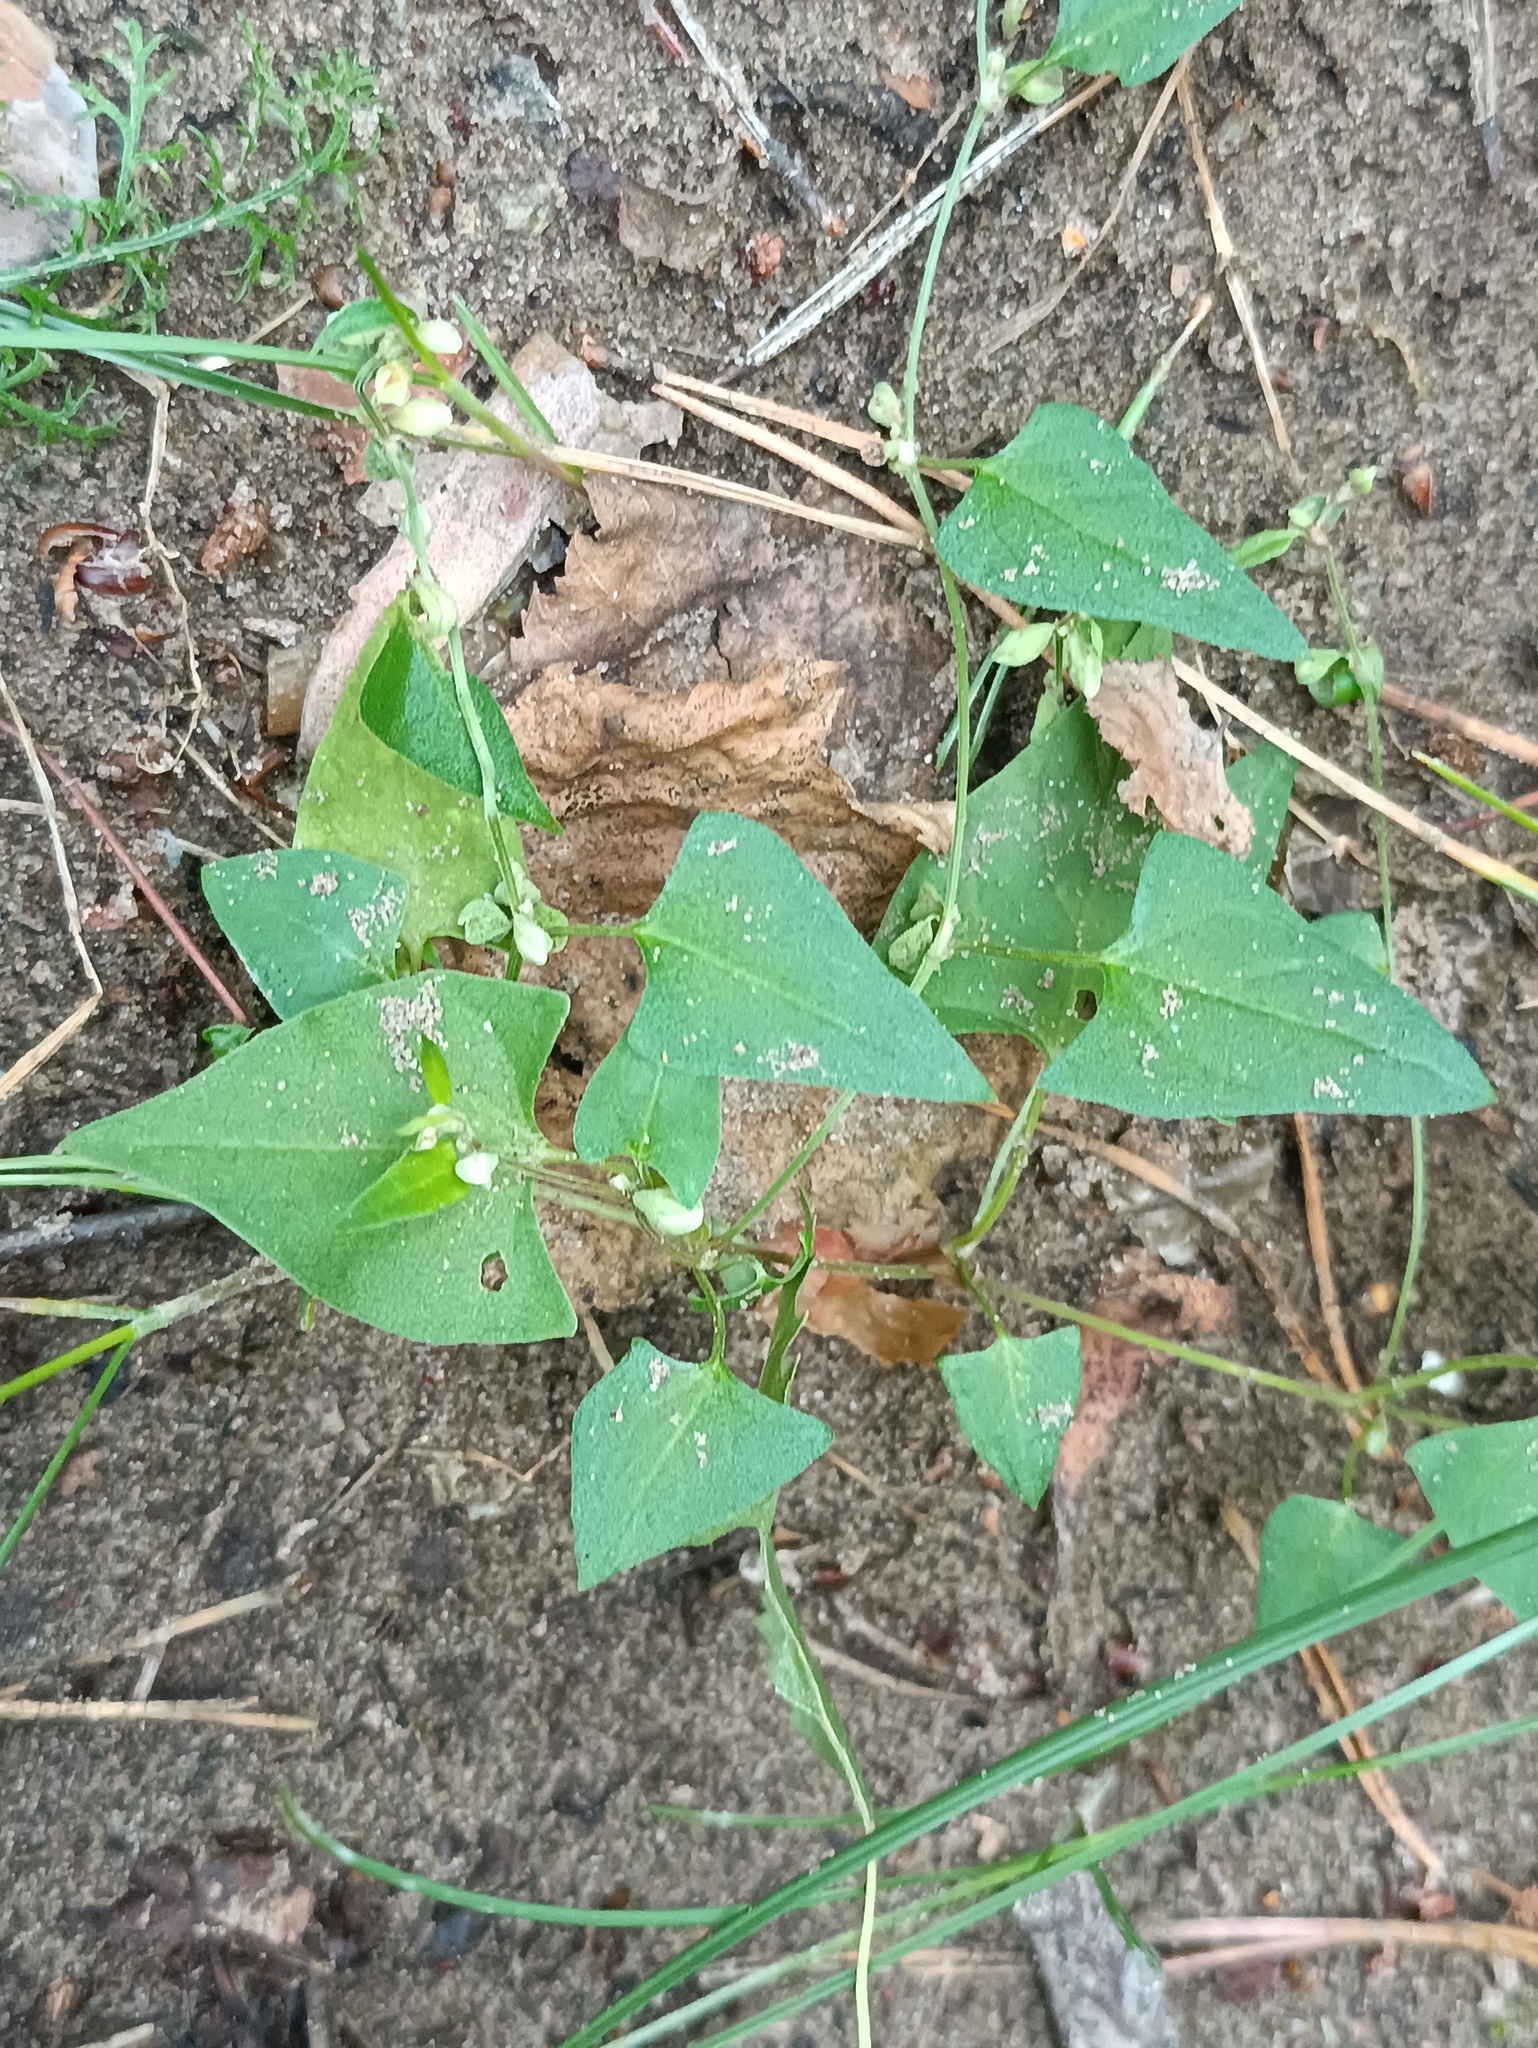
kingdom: Plantae
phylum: Tracheophyta
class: Magnoliopsida
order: Caryophyllales
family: Polygonaceae
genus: Fallopia
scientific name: Fallopia convolvulus
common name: Black bindweed
